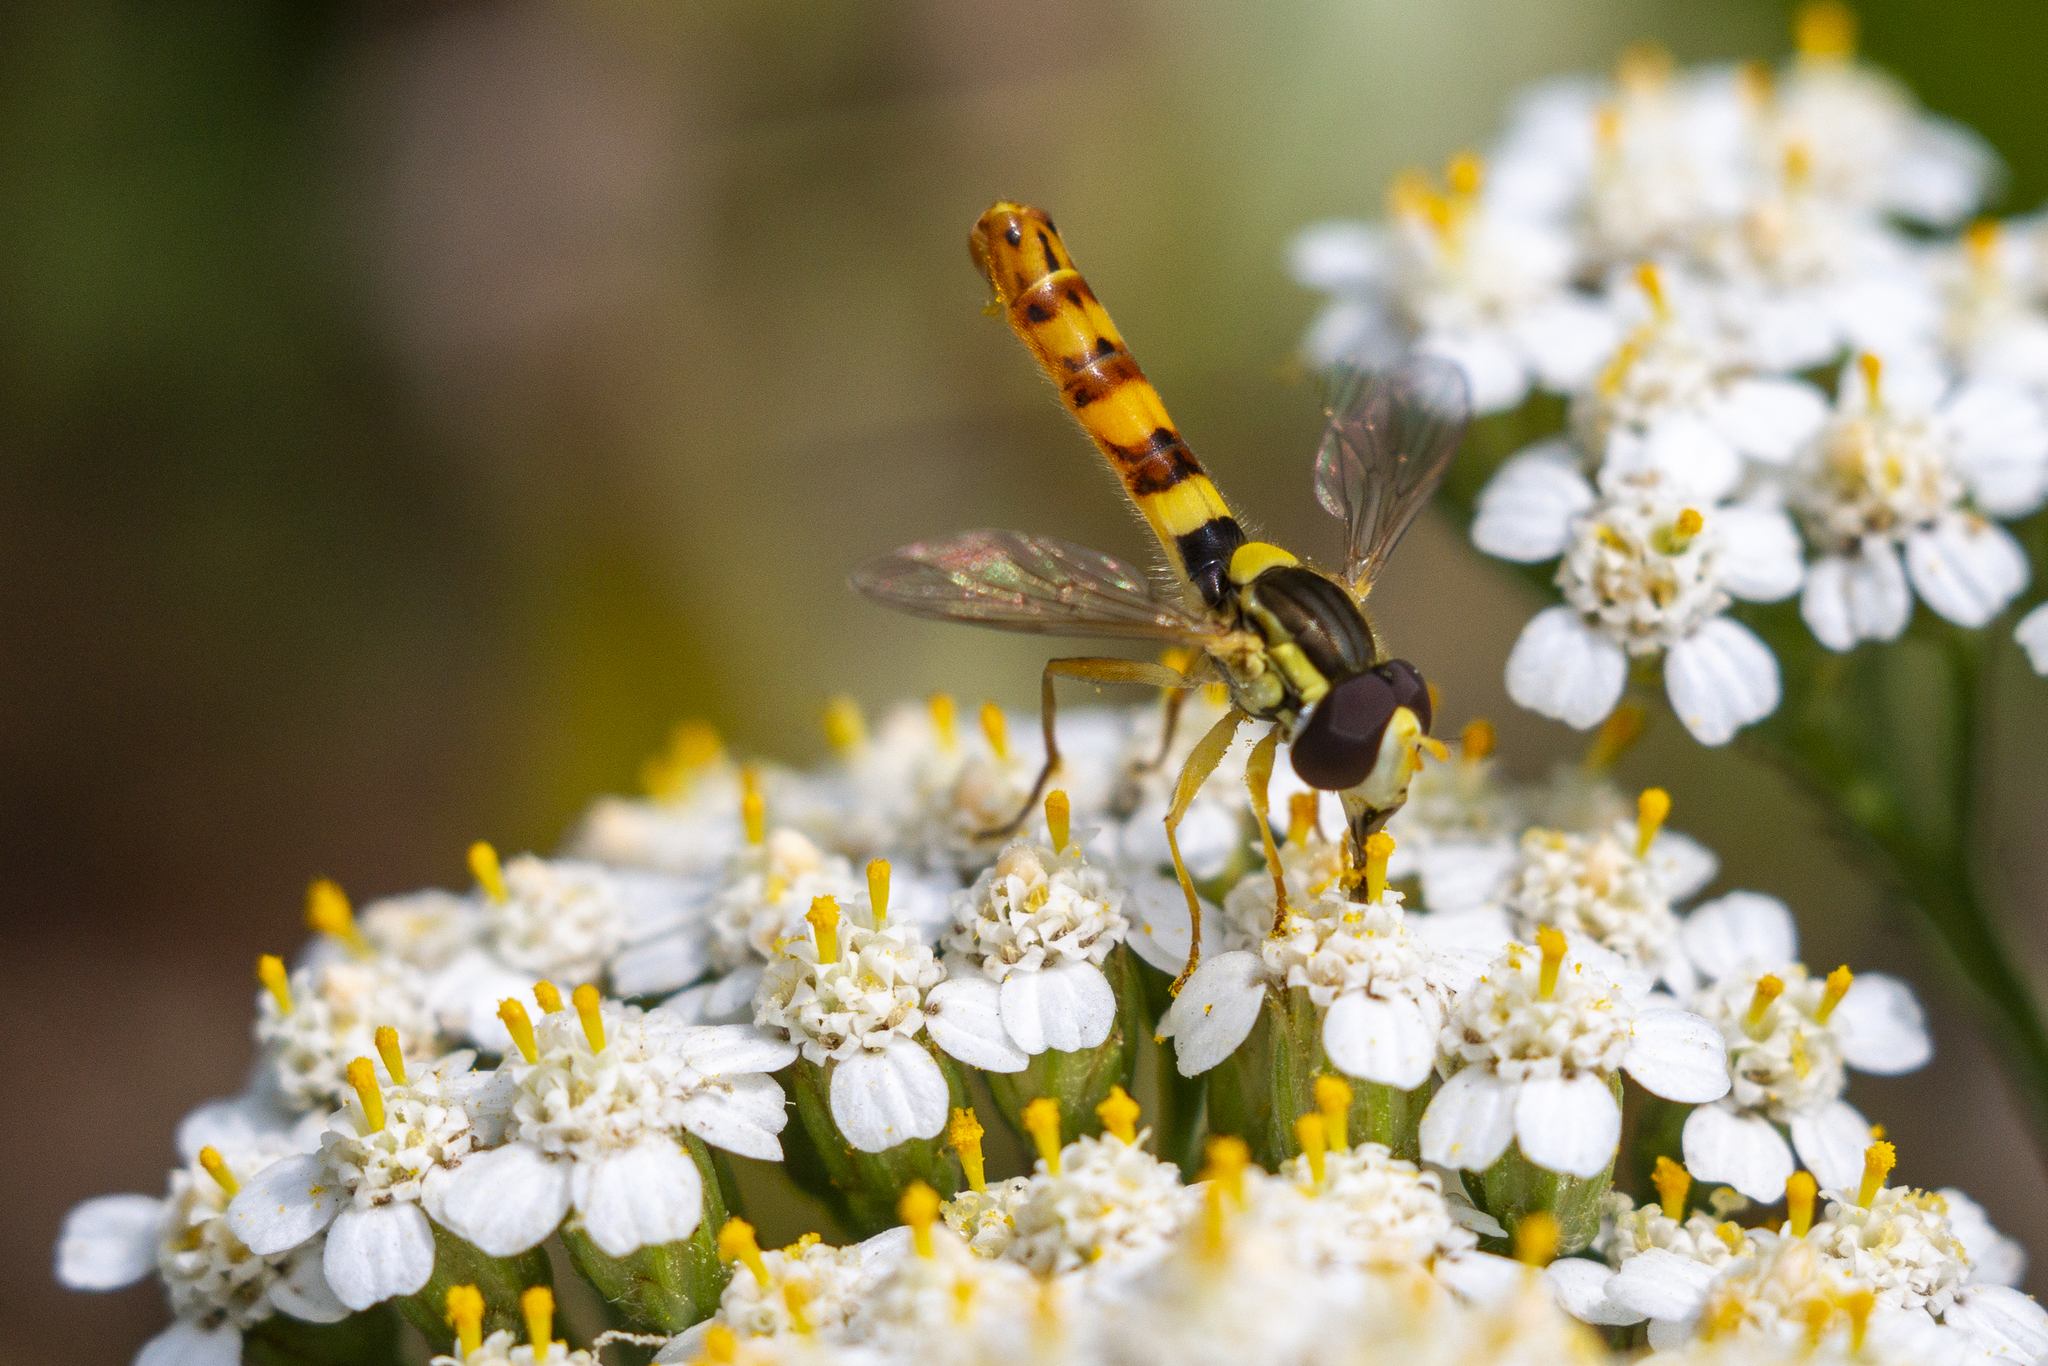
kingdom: Animalia
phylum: Arthropoda
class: Insecta
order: Diptera
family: Syrphidae
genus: Sphaerophoria
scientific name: Sphaerophoria scripta
